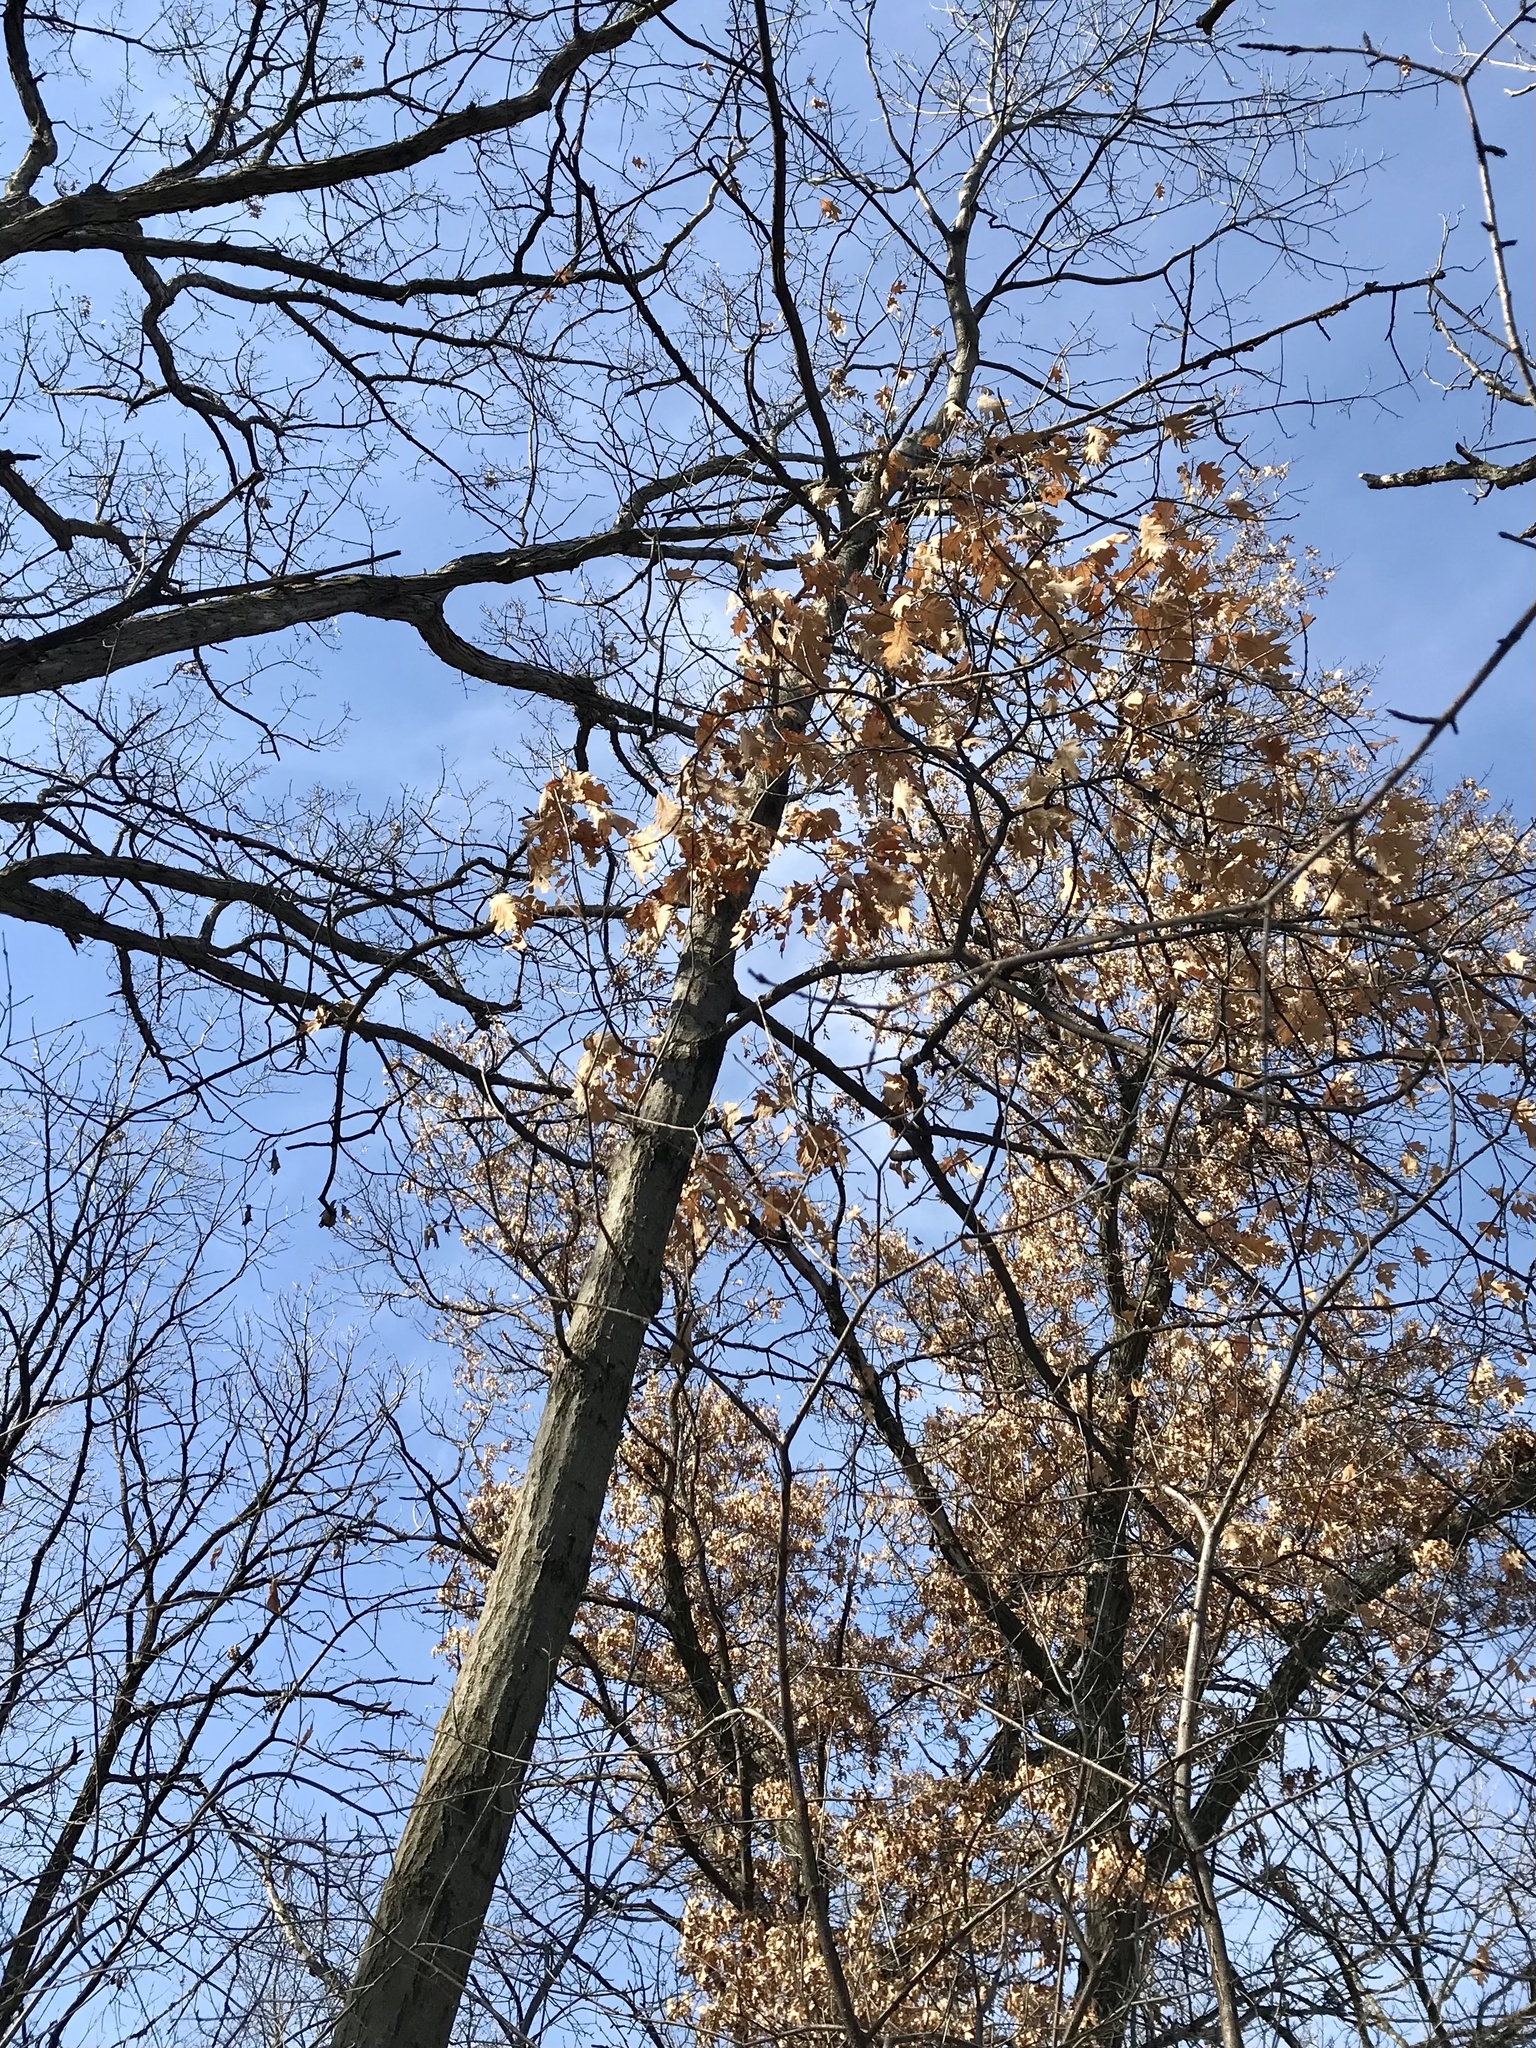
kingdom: Plantae
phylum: Tracheophyta
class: Magnoliopsida
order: Fagales
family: Fagaceae
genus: Quercus
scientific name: Quercus rubra
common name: Red oak
